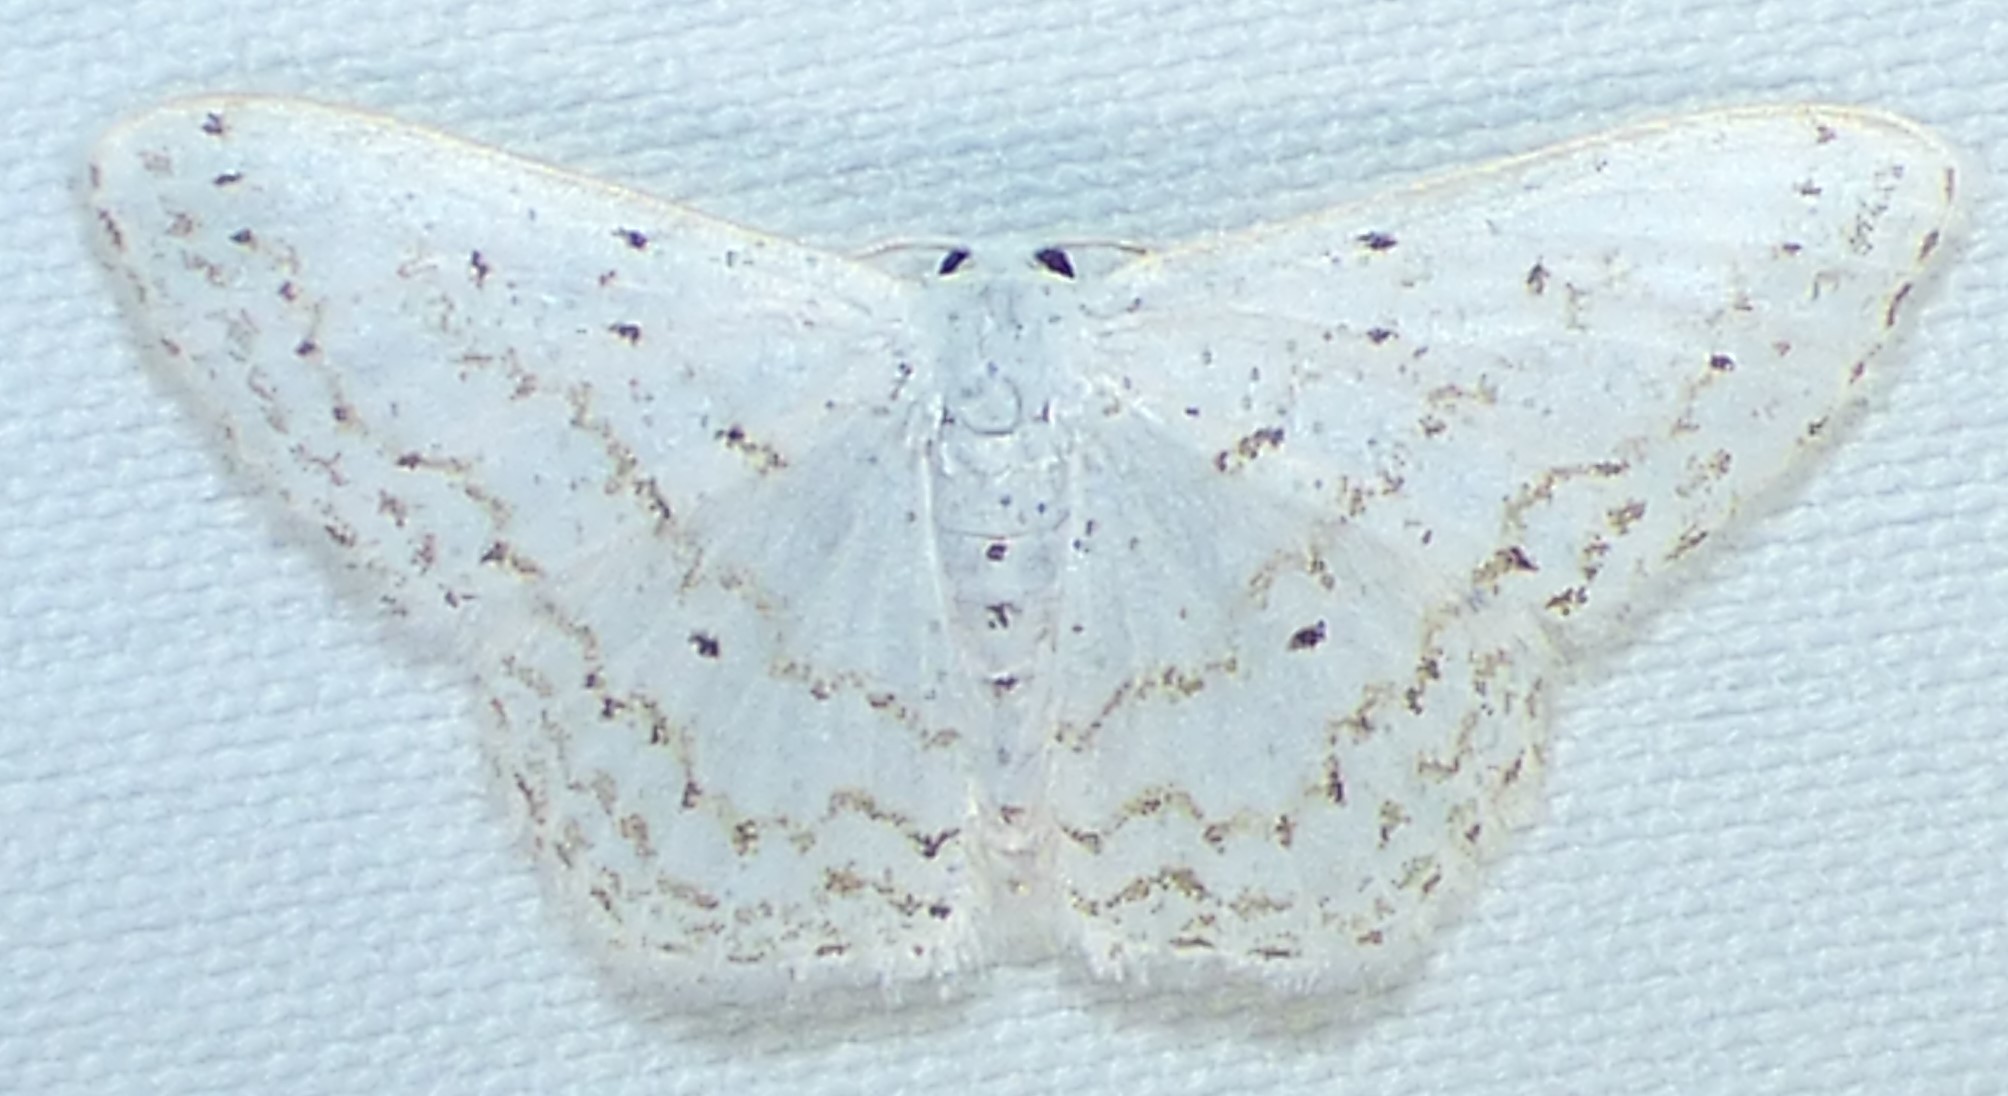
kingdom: Animalia
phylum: Arthropoda
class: Insecta
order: Lepidoptera
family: Geometridae
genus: Idaea
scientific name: Idaea tacturata
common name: Dot-lined wave
